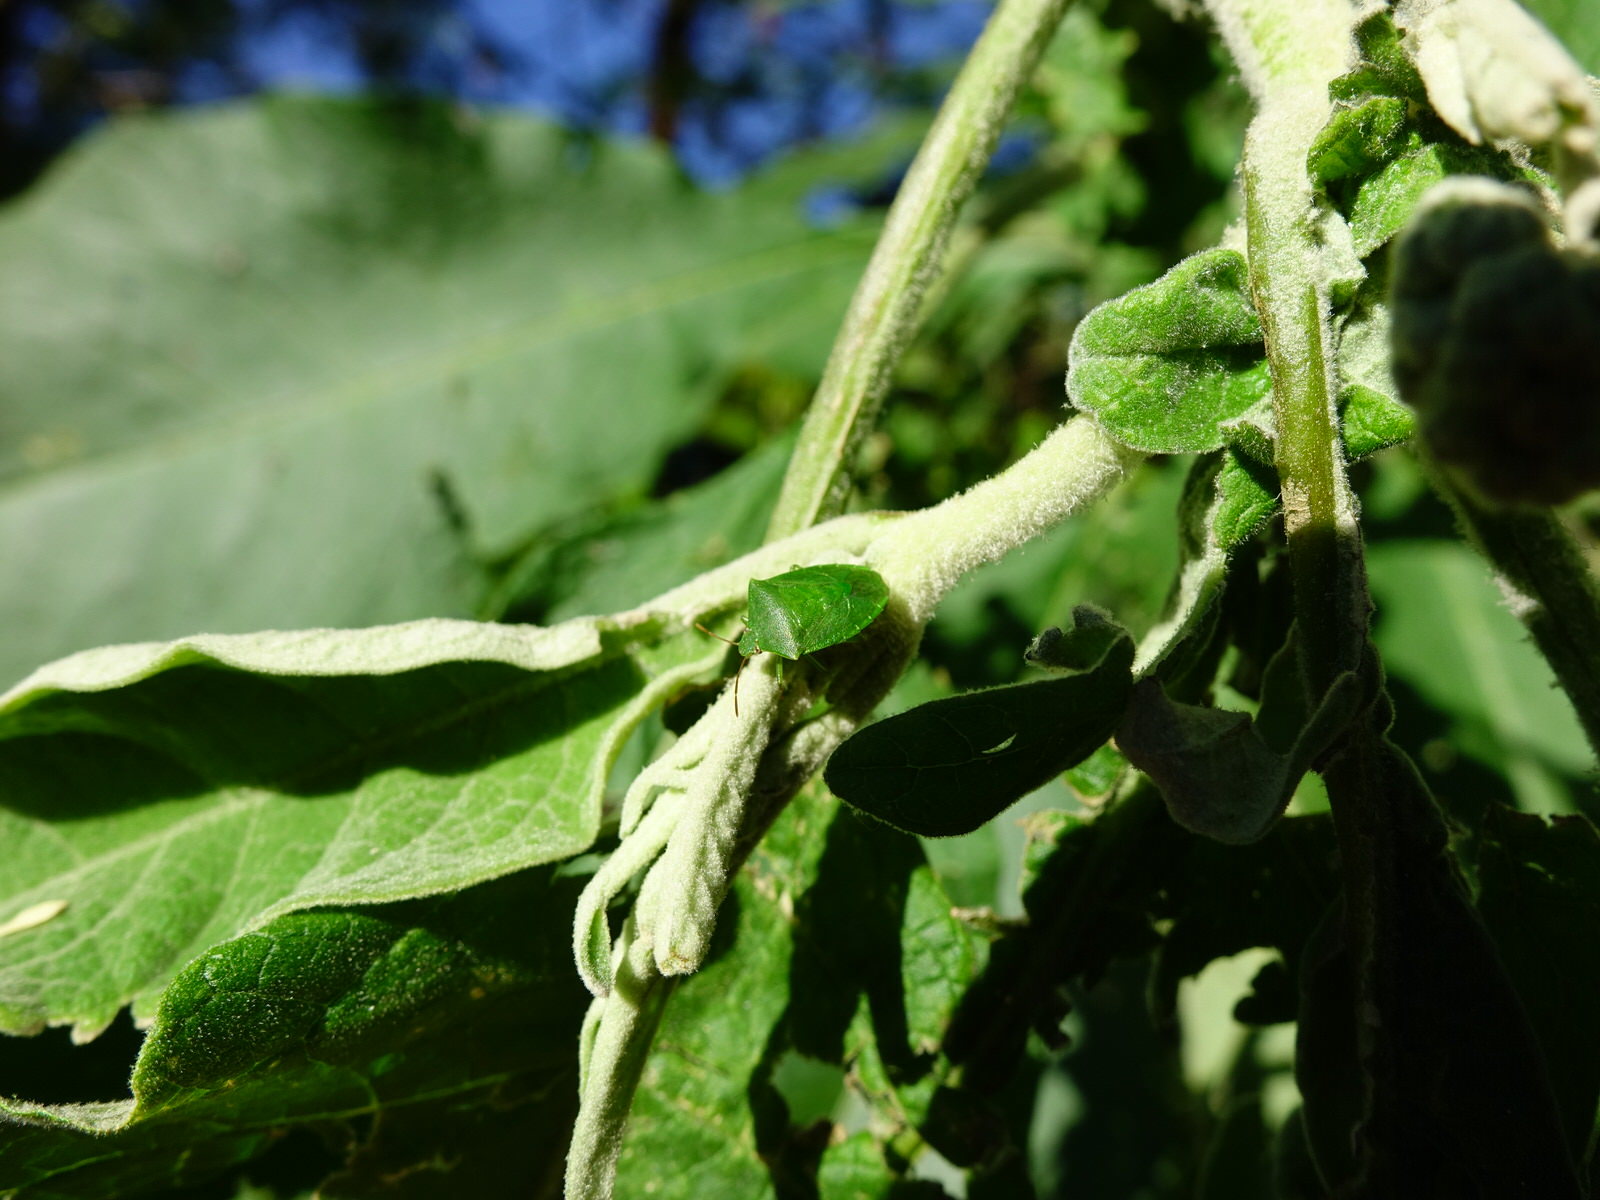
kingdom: Animalia
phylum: Arthropoda
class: Insecta
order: Hemiptera
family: Pentatomidae
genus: Cuspicona
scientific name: Cuspicona simplex
